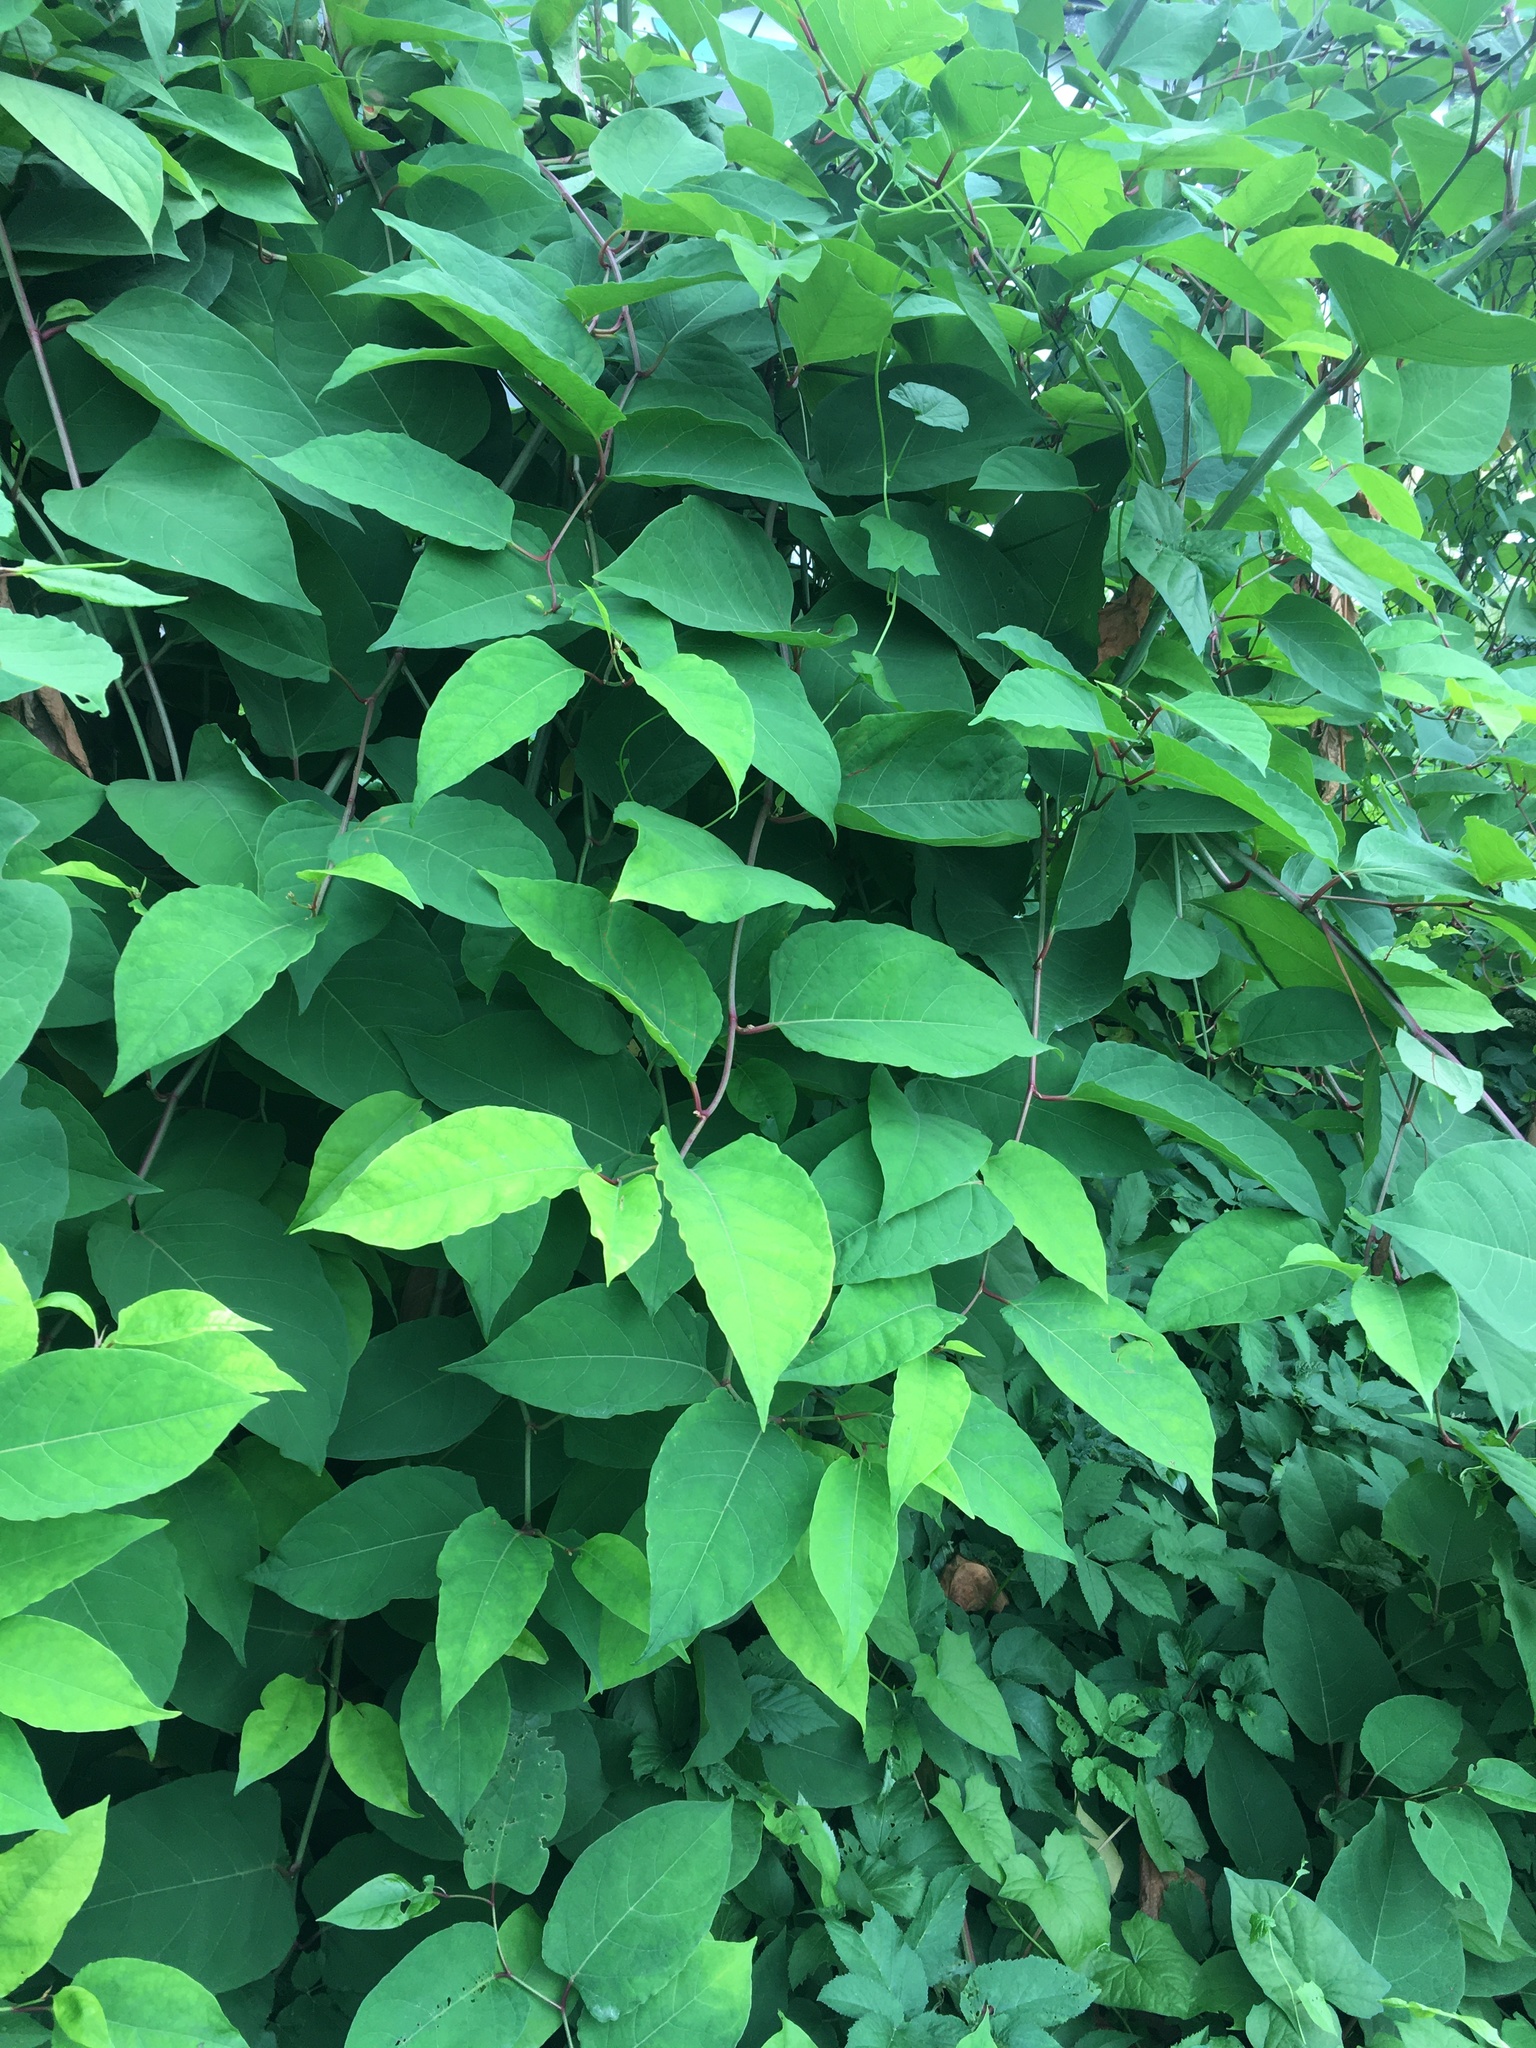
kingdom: Plantae
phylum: Tracheophyta
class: Magnoliopsida
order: Caryophyllales
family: Polygonaceae
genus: Reynoutria
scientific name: Reynoutria bohemica
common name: Bohemian knotweed
